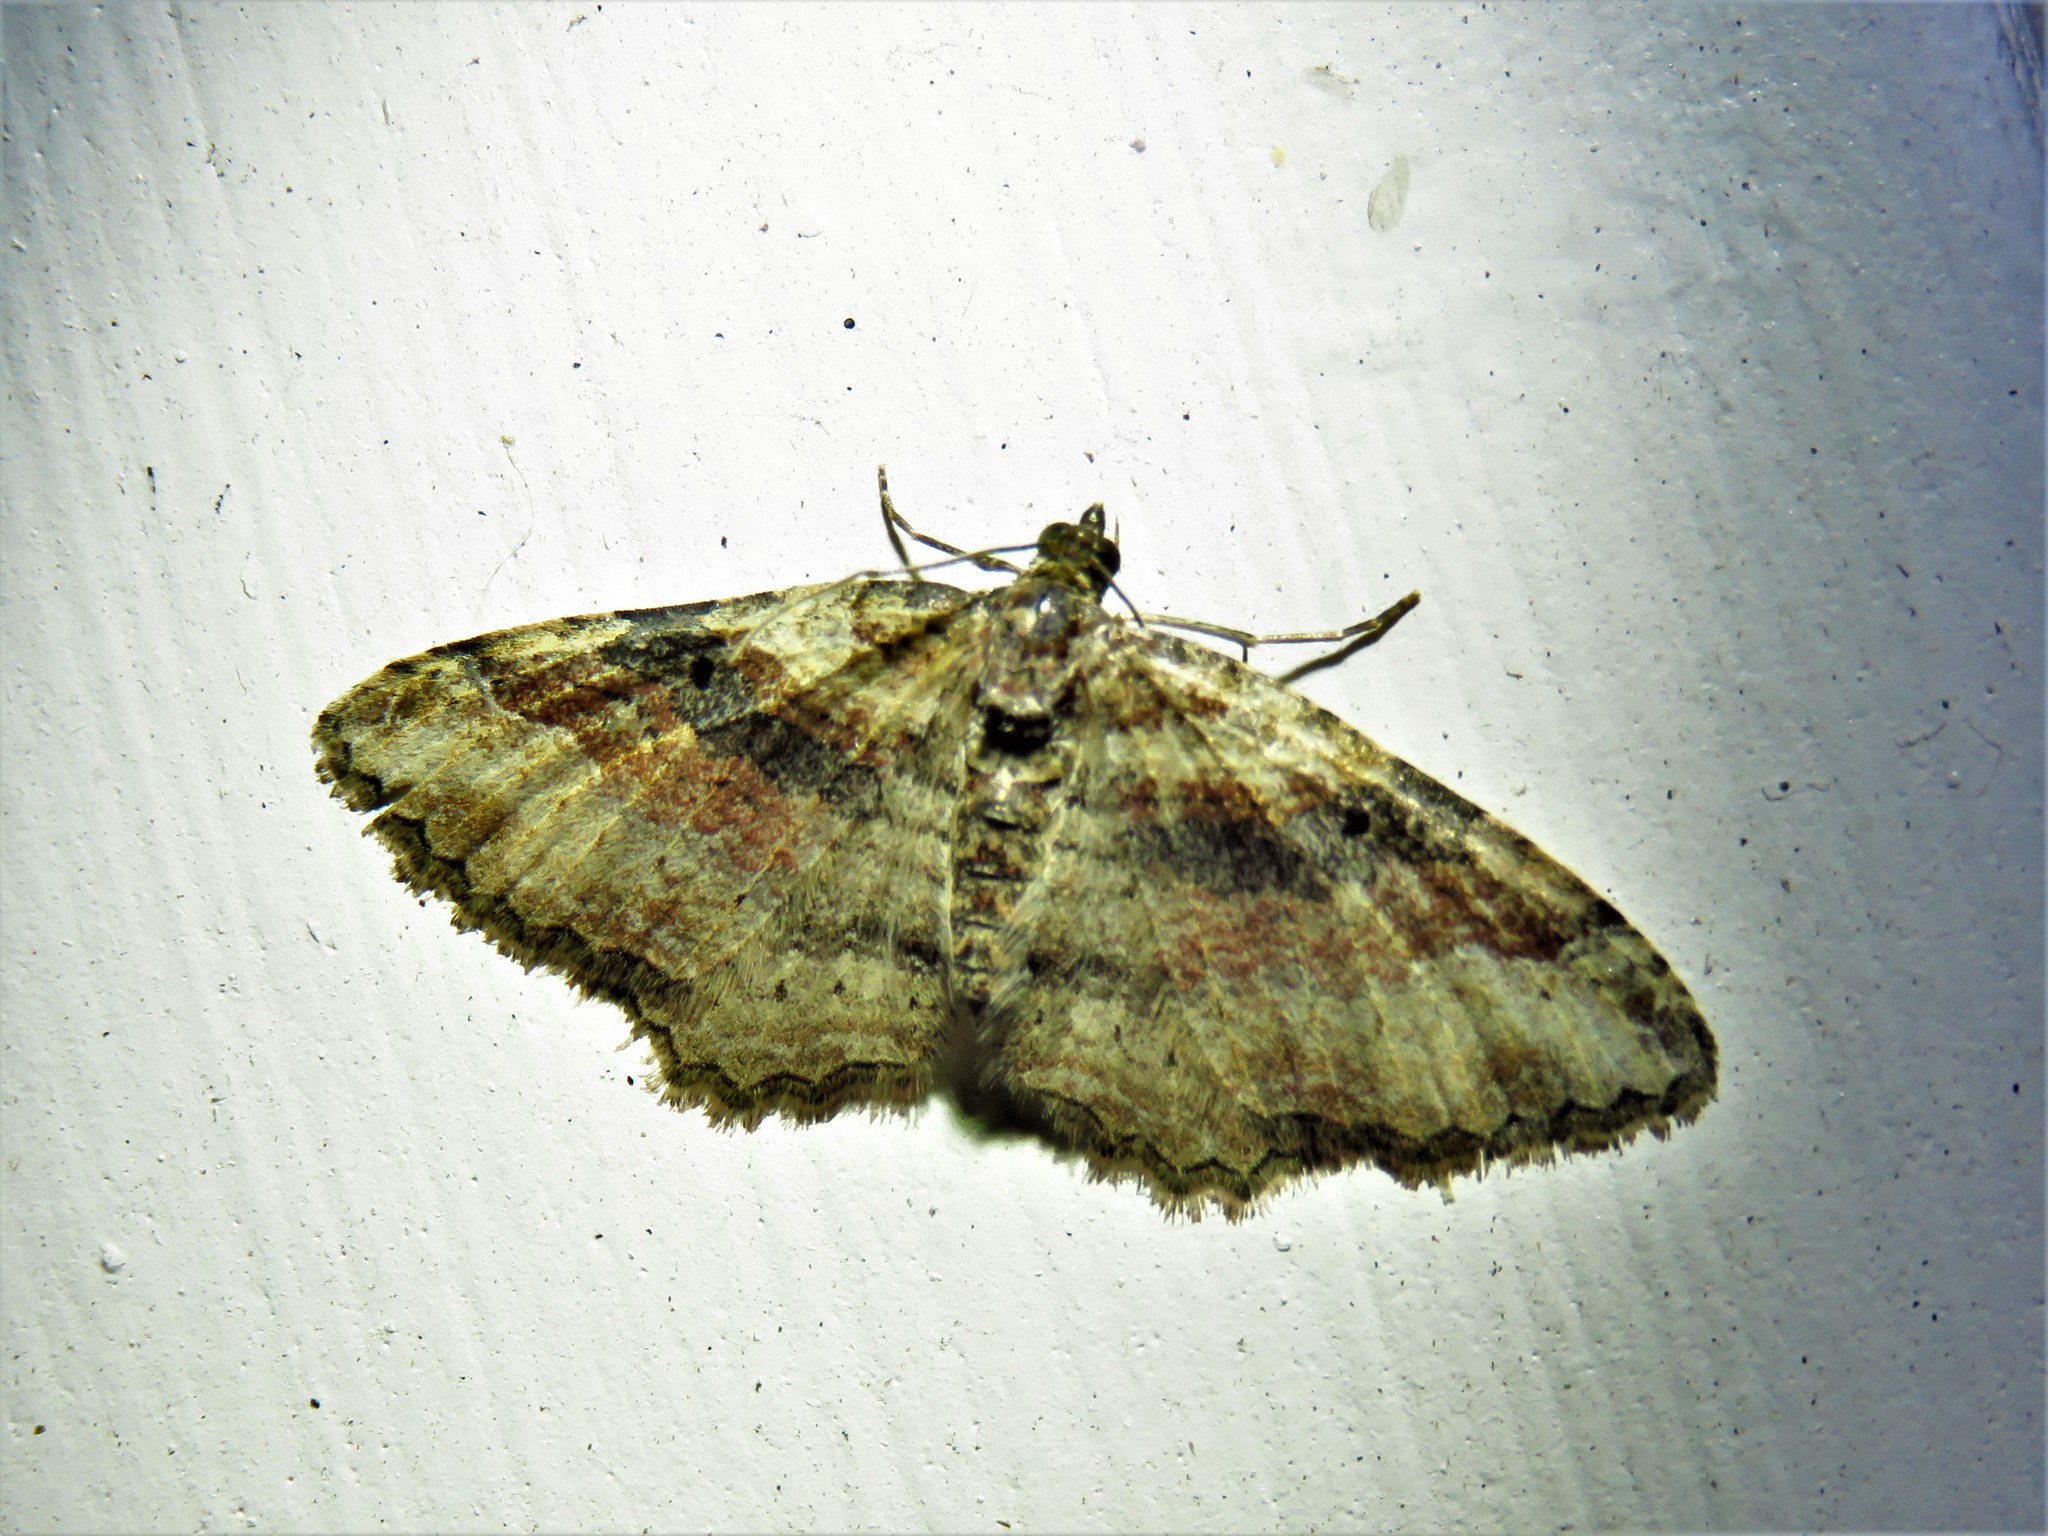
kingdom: Animalia
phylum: Arthropoda
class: Insecta
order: Lepidoptera
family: Geometridae
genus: Costaconvexa
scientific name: Costaconvexa centrostrigaria
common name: Bent-line carpet
